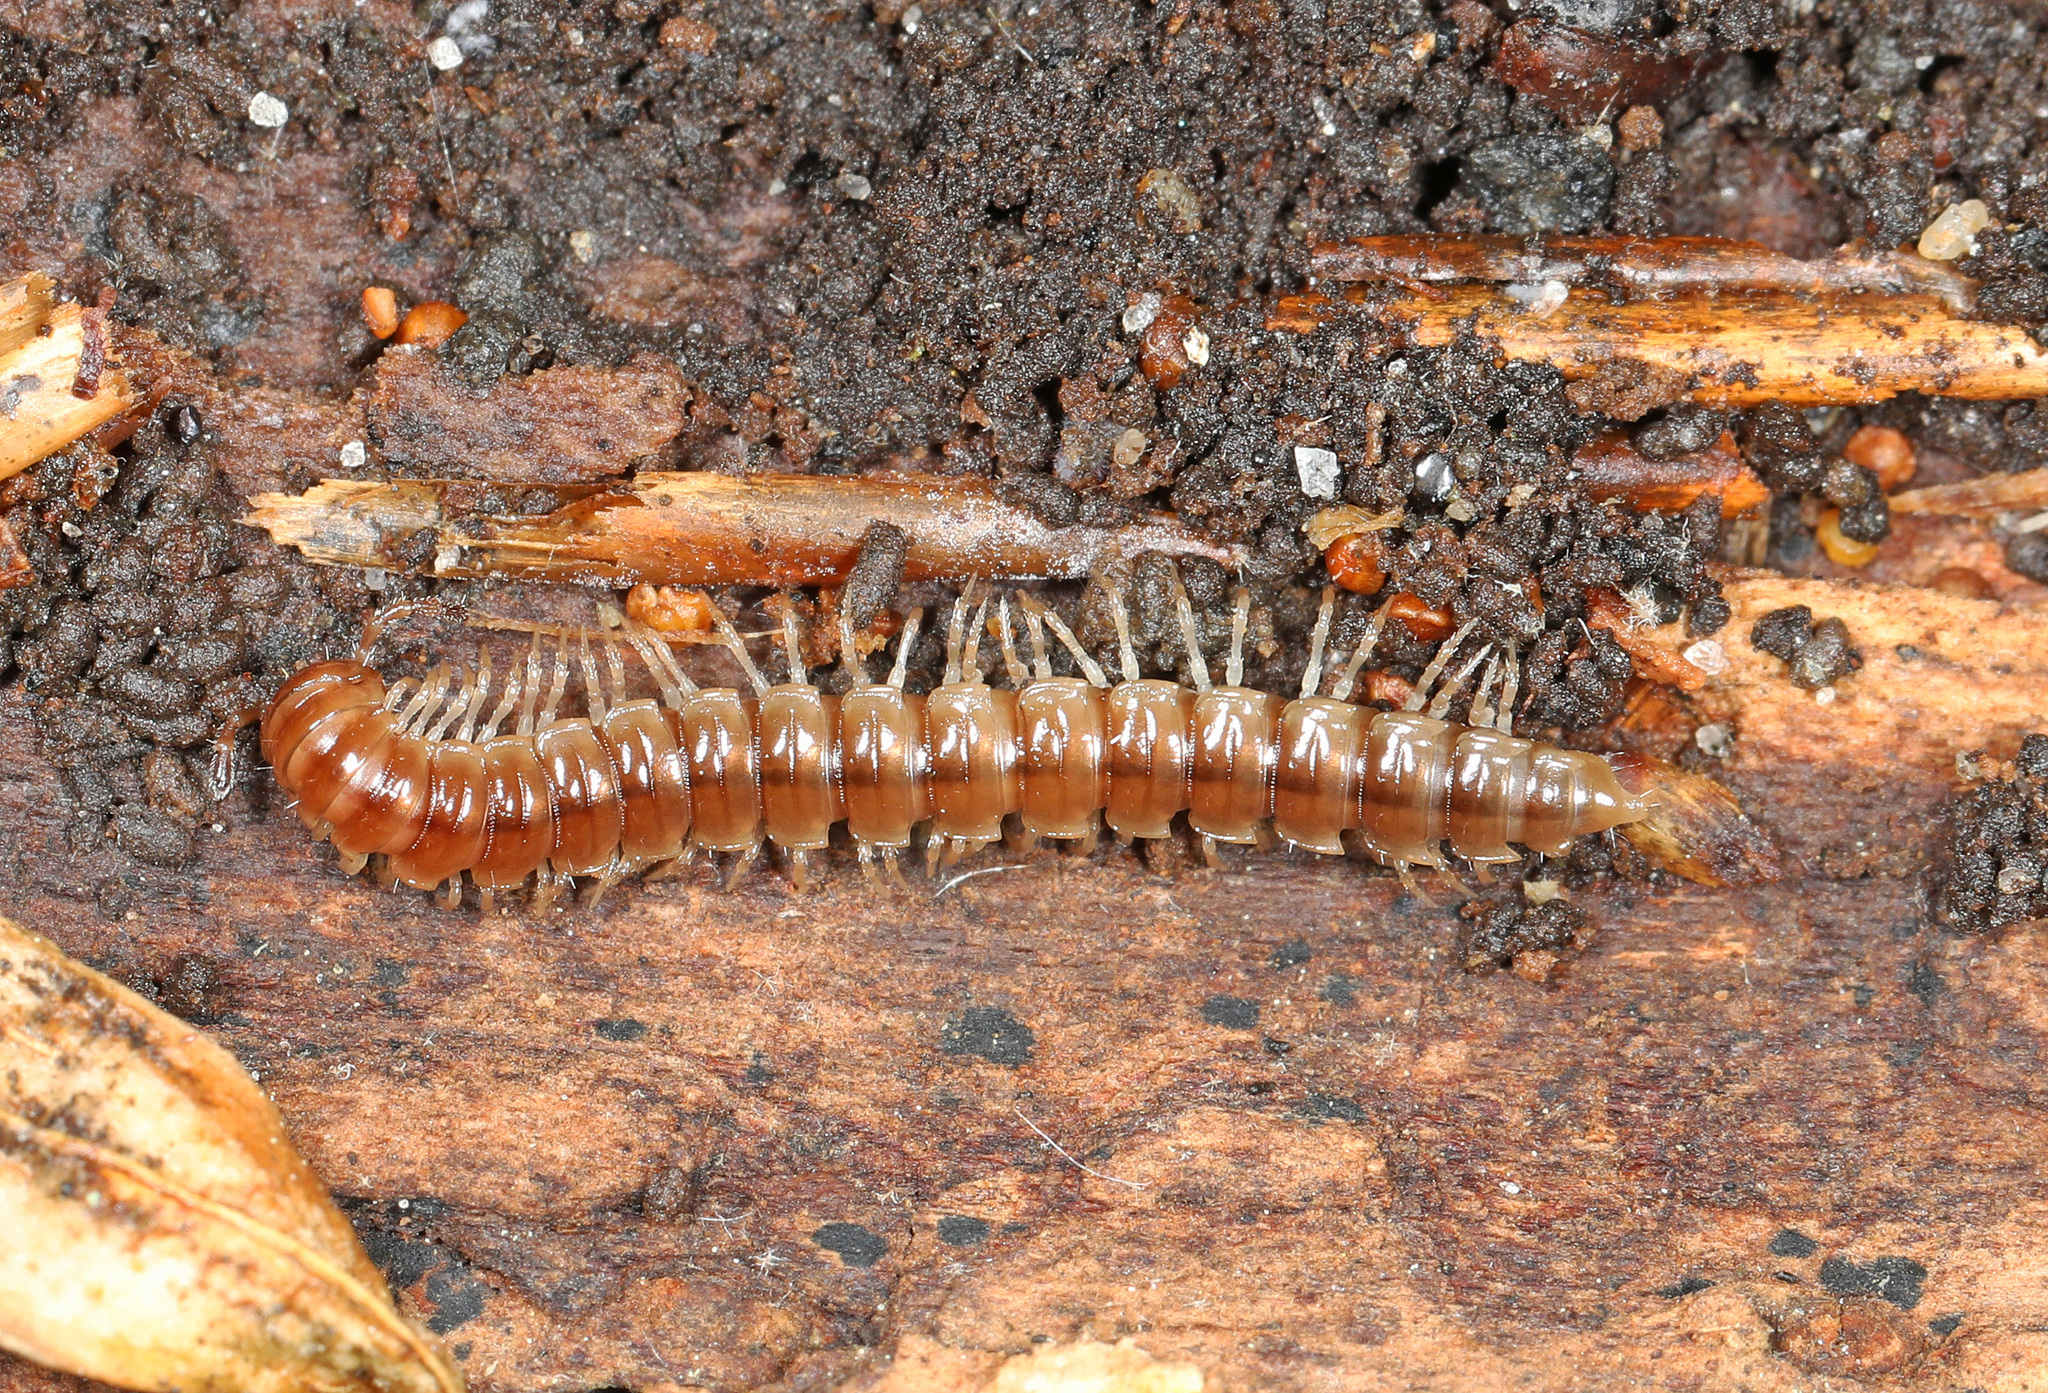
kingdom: Animalia
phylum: Arthropoda
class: Diplopoda
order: Polydesmida
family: Paradoxosomatidae
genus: Oxidus
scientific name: Oxidus gracilis
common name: Greenhouse millipede
